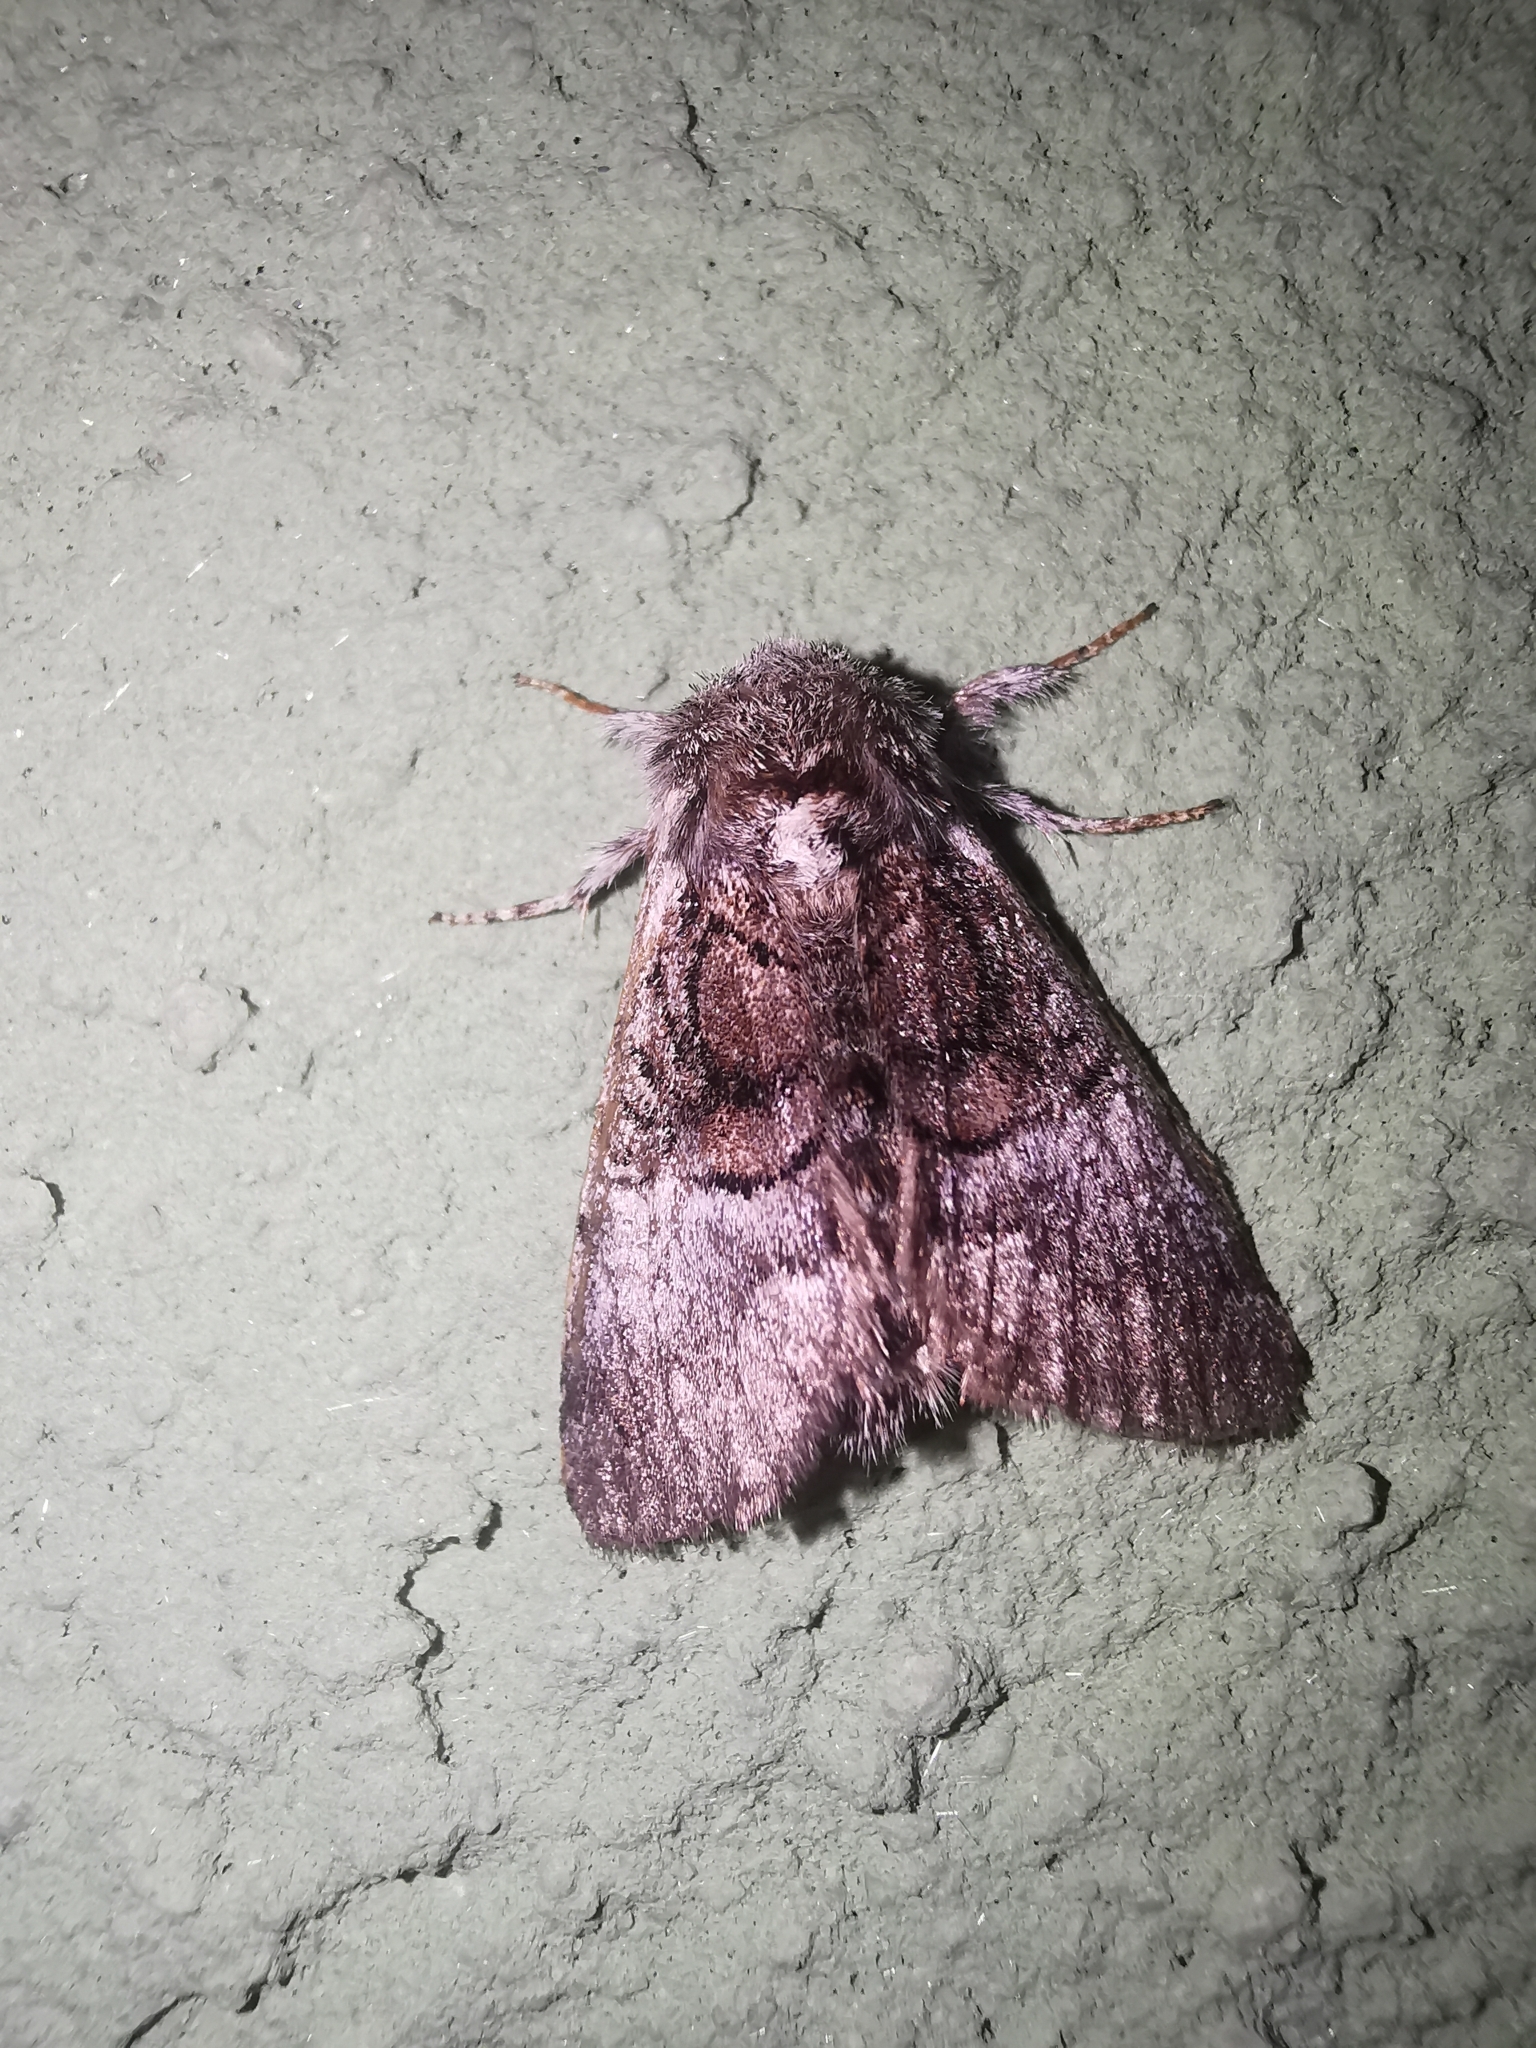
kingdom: Animalia
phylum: Arthropoda
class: Insecta
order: Lepidoptera
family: Noctuidae
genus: Colocasia
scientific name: Colocasia coryli
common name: Nut-tree tussock
